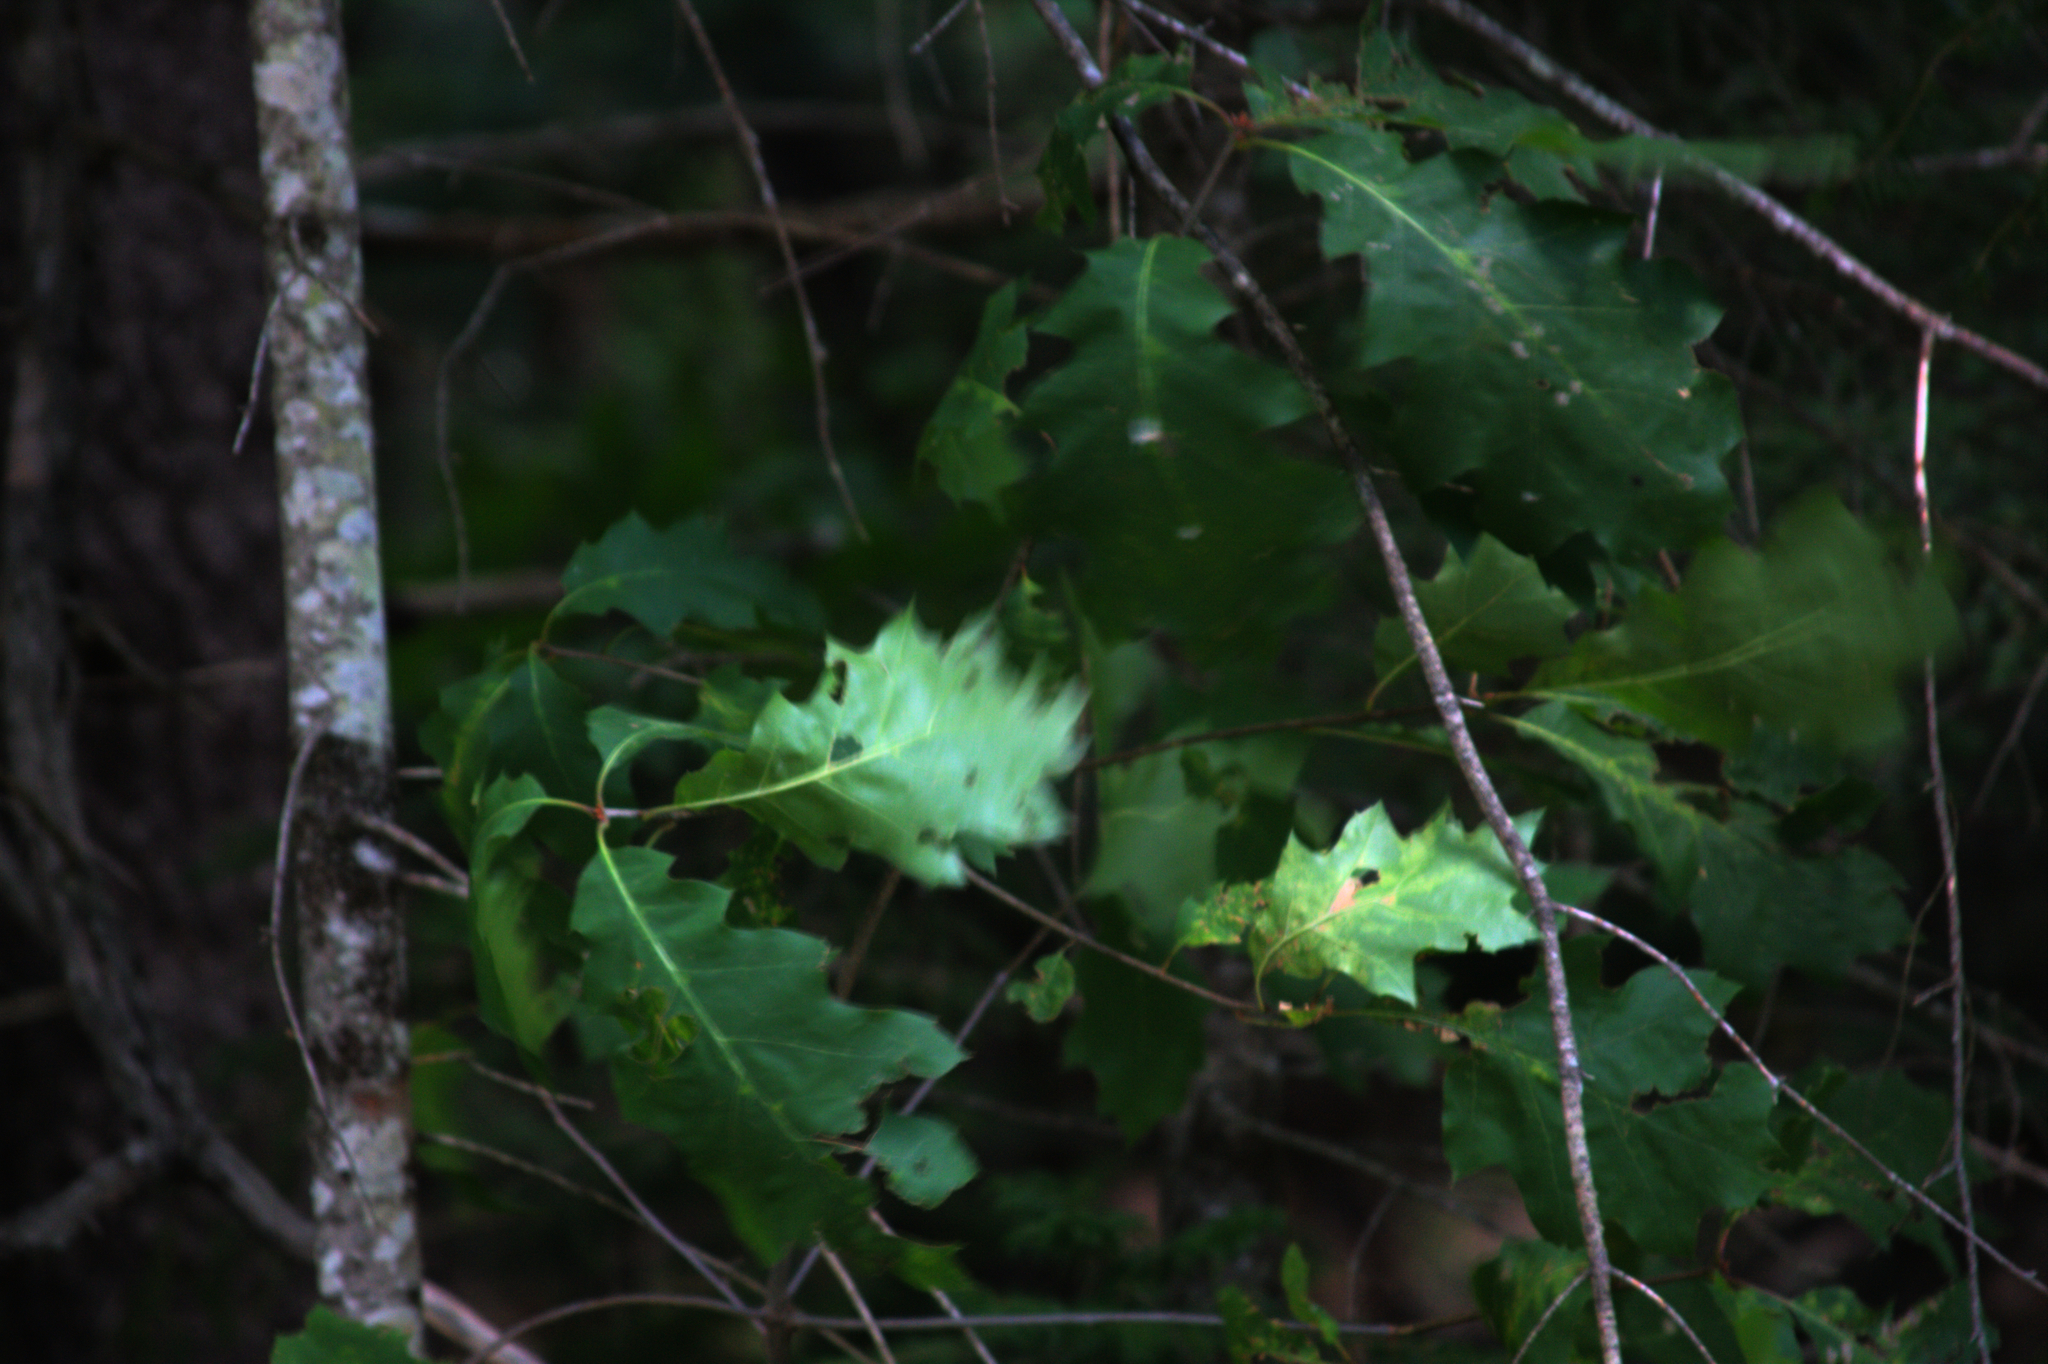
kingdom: Plantae
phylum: Tracheophyta
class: Magnoliopsida
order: Fagales
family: Fagaceae
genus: Quercus
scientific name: Quercus rubra
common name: Red oak
